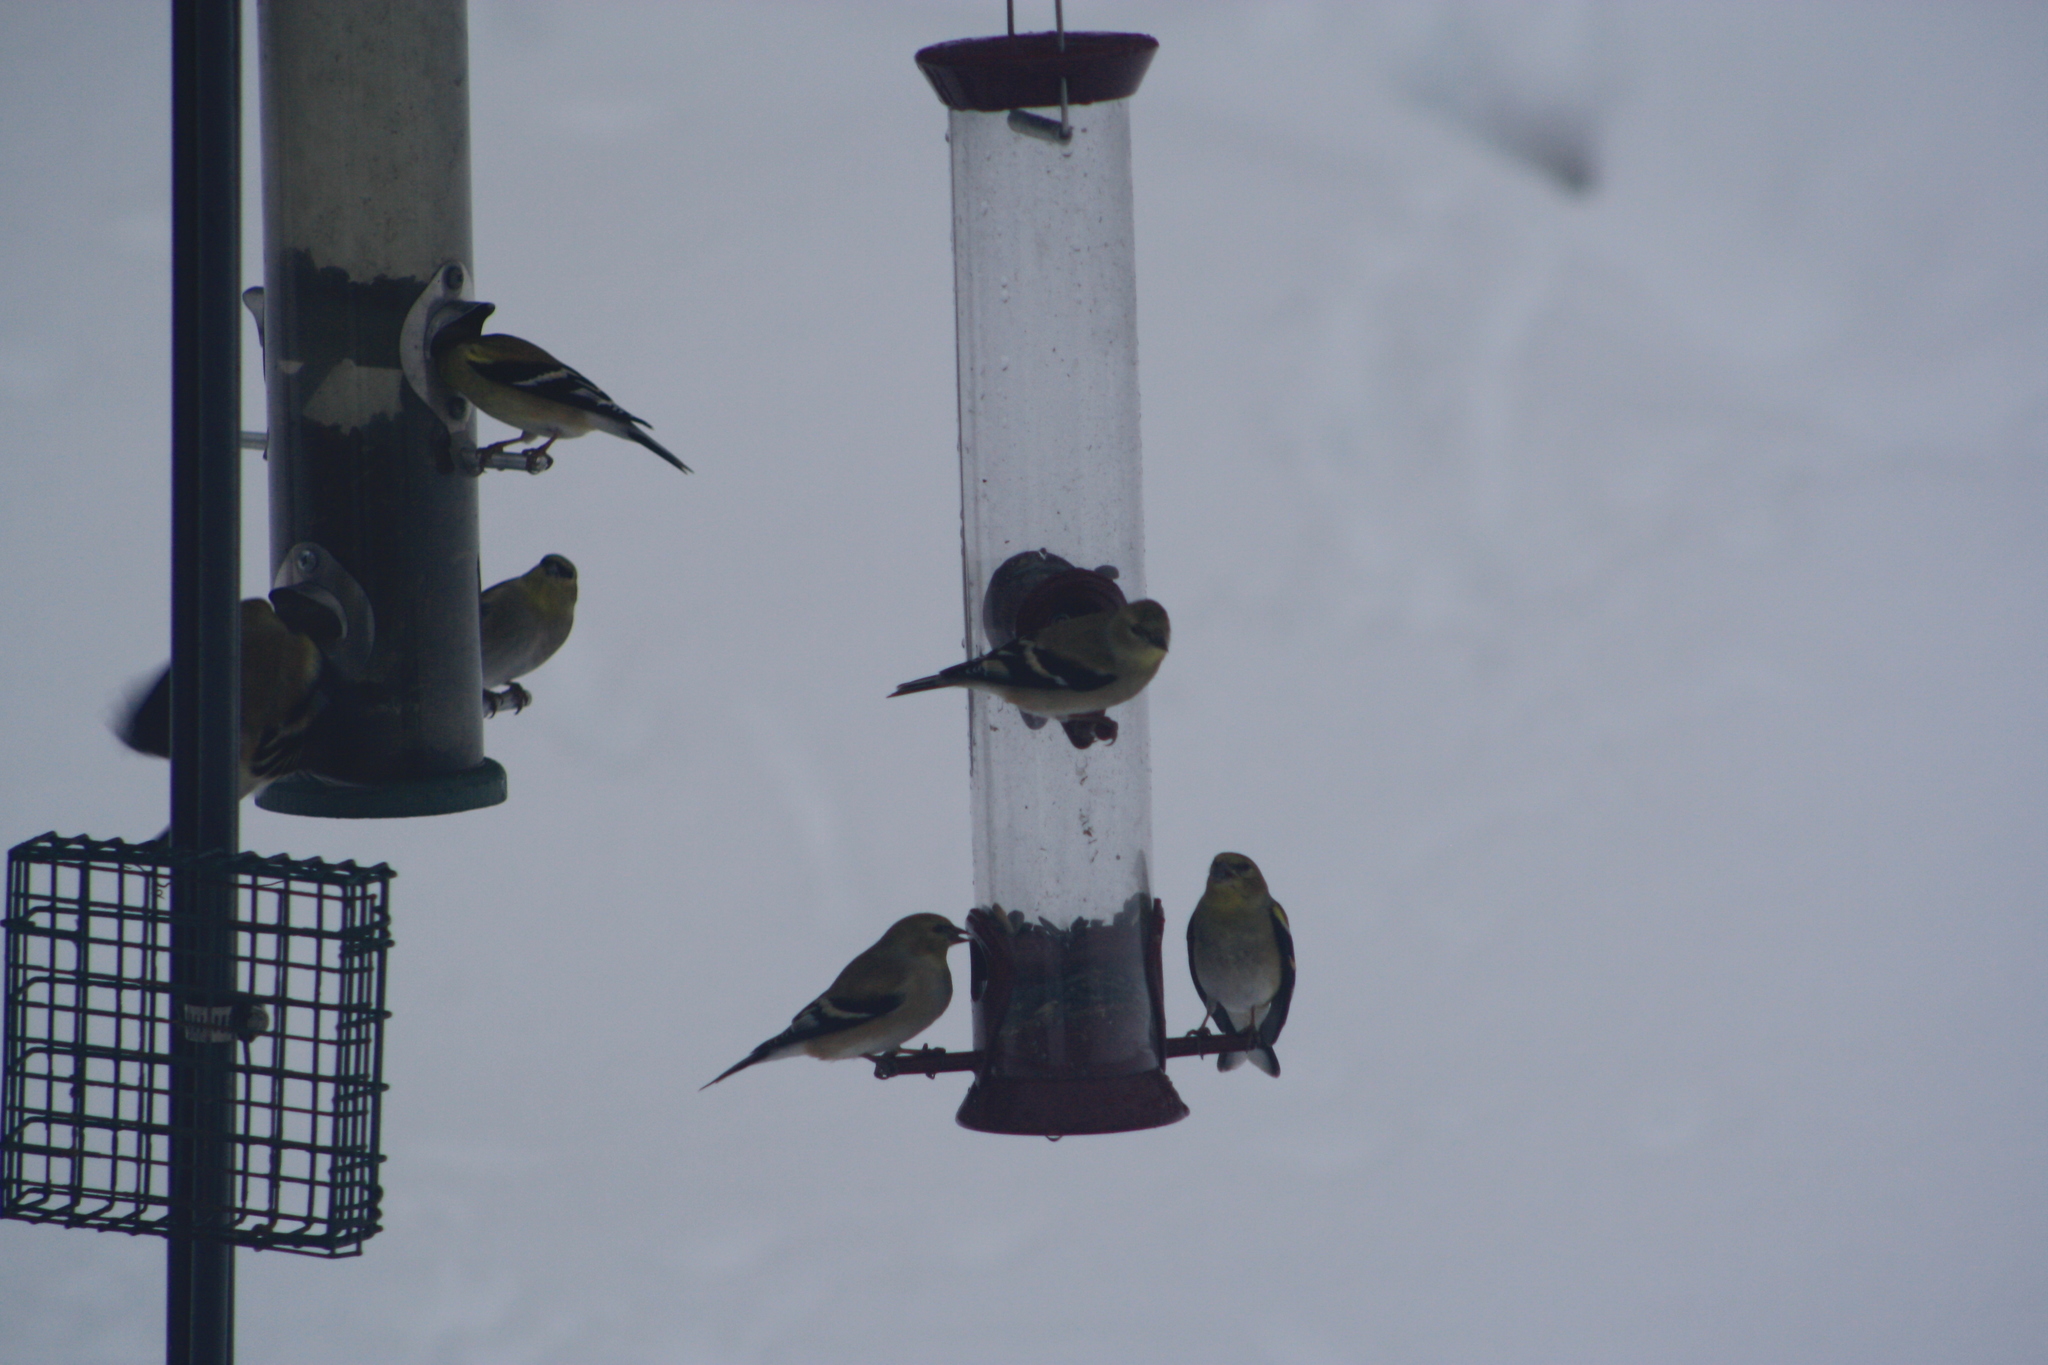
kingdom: Animalia
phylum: Chordata
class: Aves
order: Passeriformes
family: Fringillidae
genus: Spinus
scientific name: Spinus tristis
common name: American goldfinch
